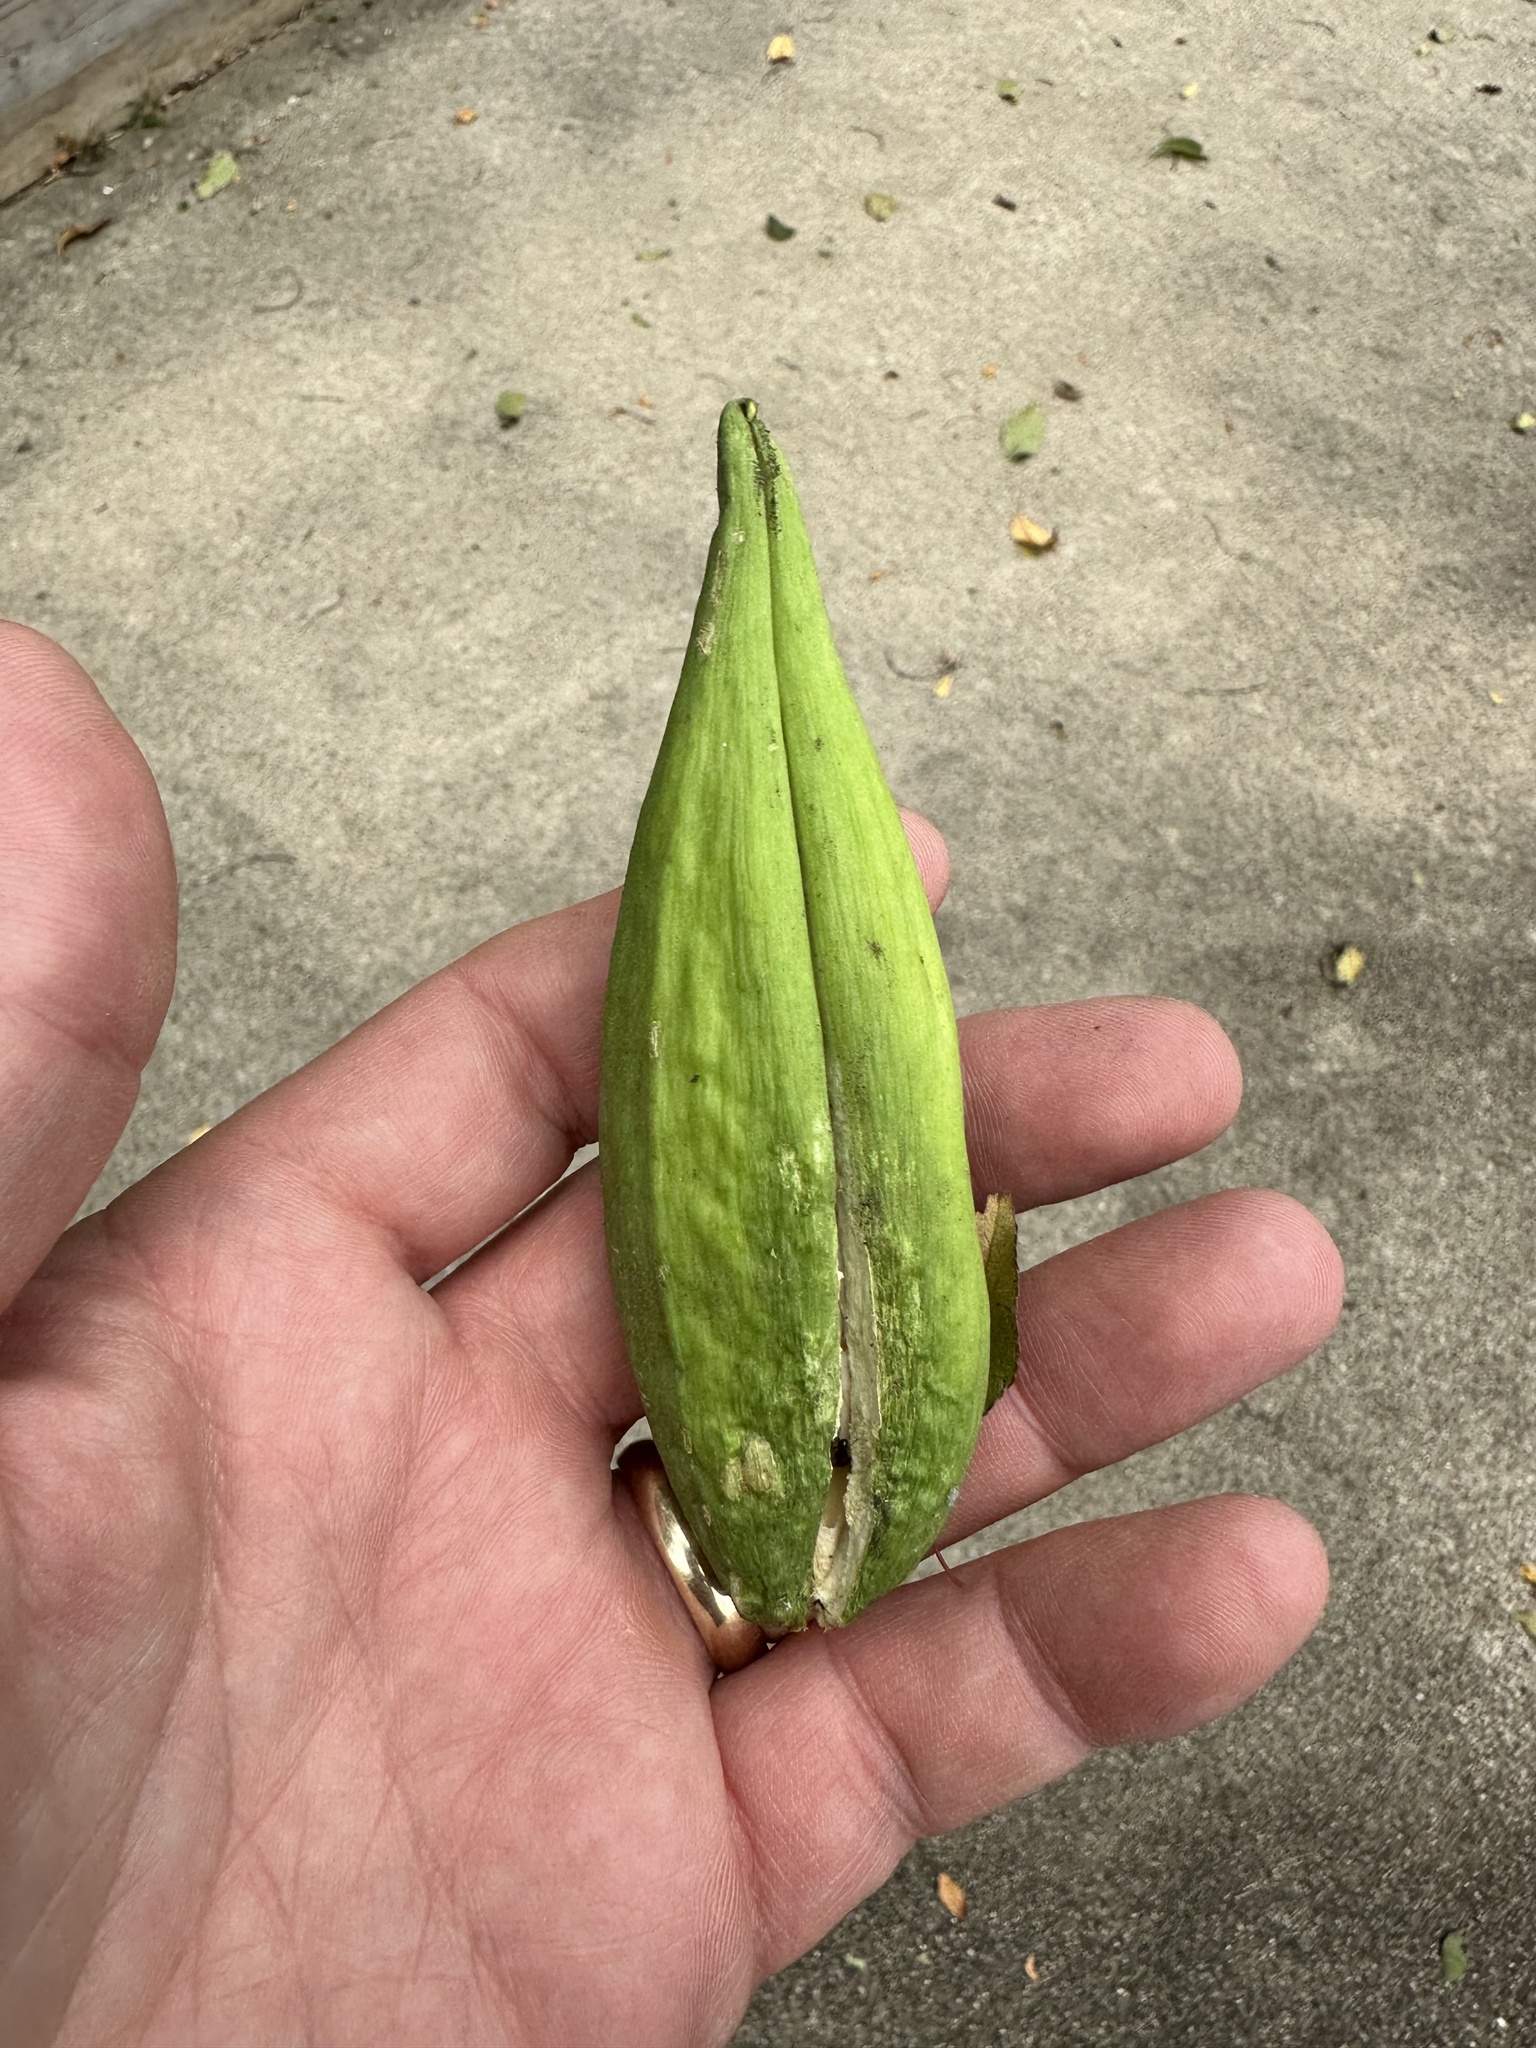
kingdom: Plantae
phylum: Tracheophyta
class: Magnoliopsida
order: Gentianales
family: Apocynaceae
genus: Cynanchum
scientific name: Cynanchum laeve
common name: Sandvine
